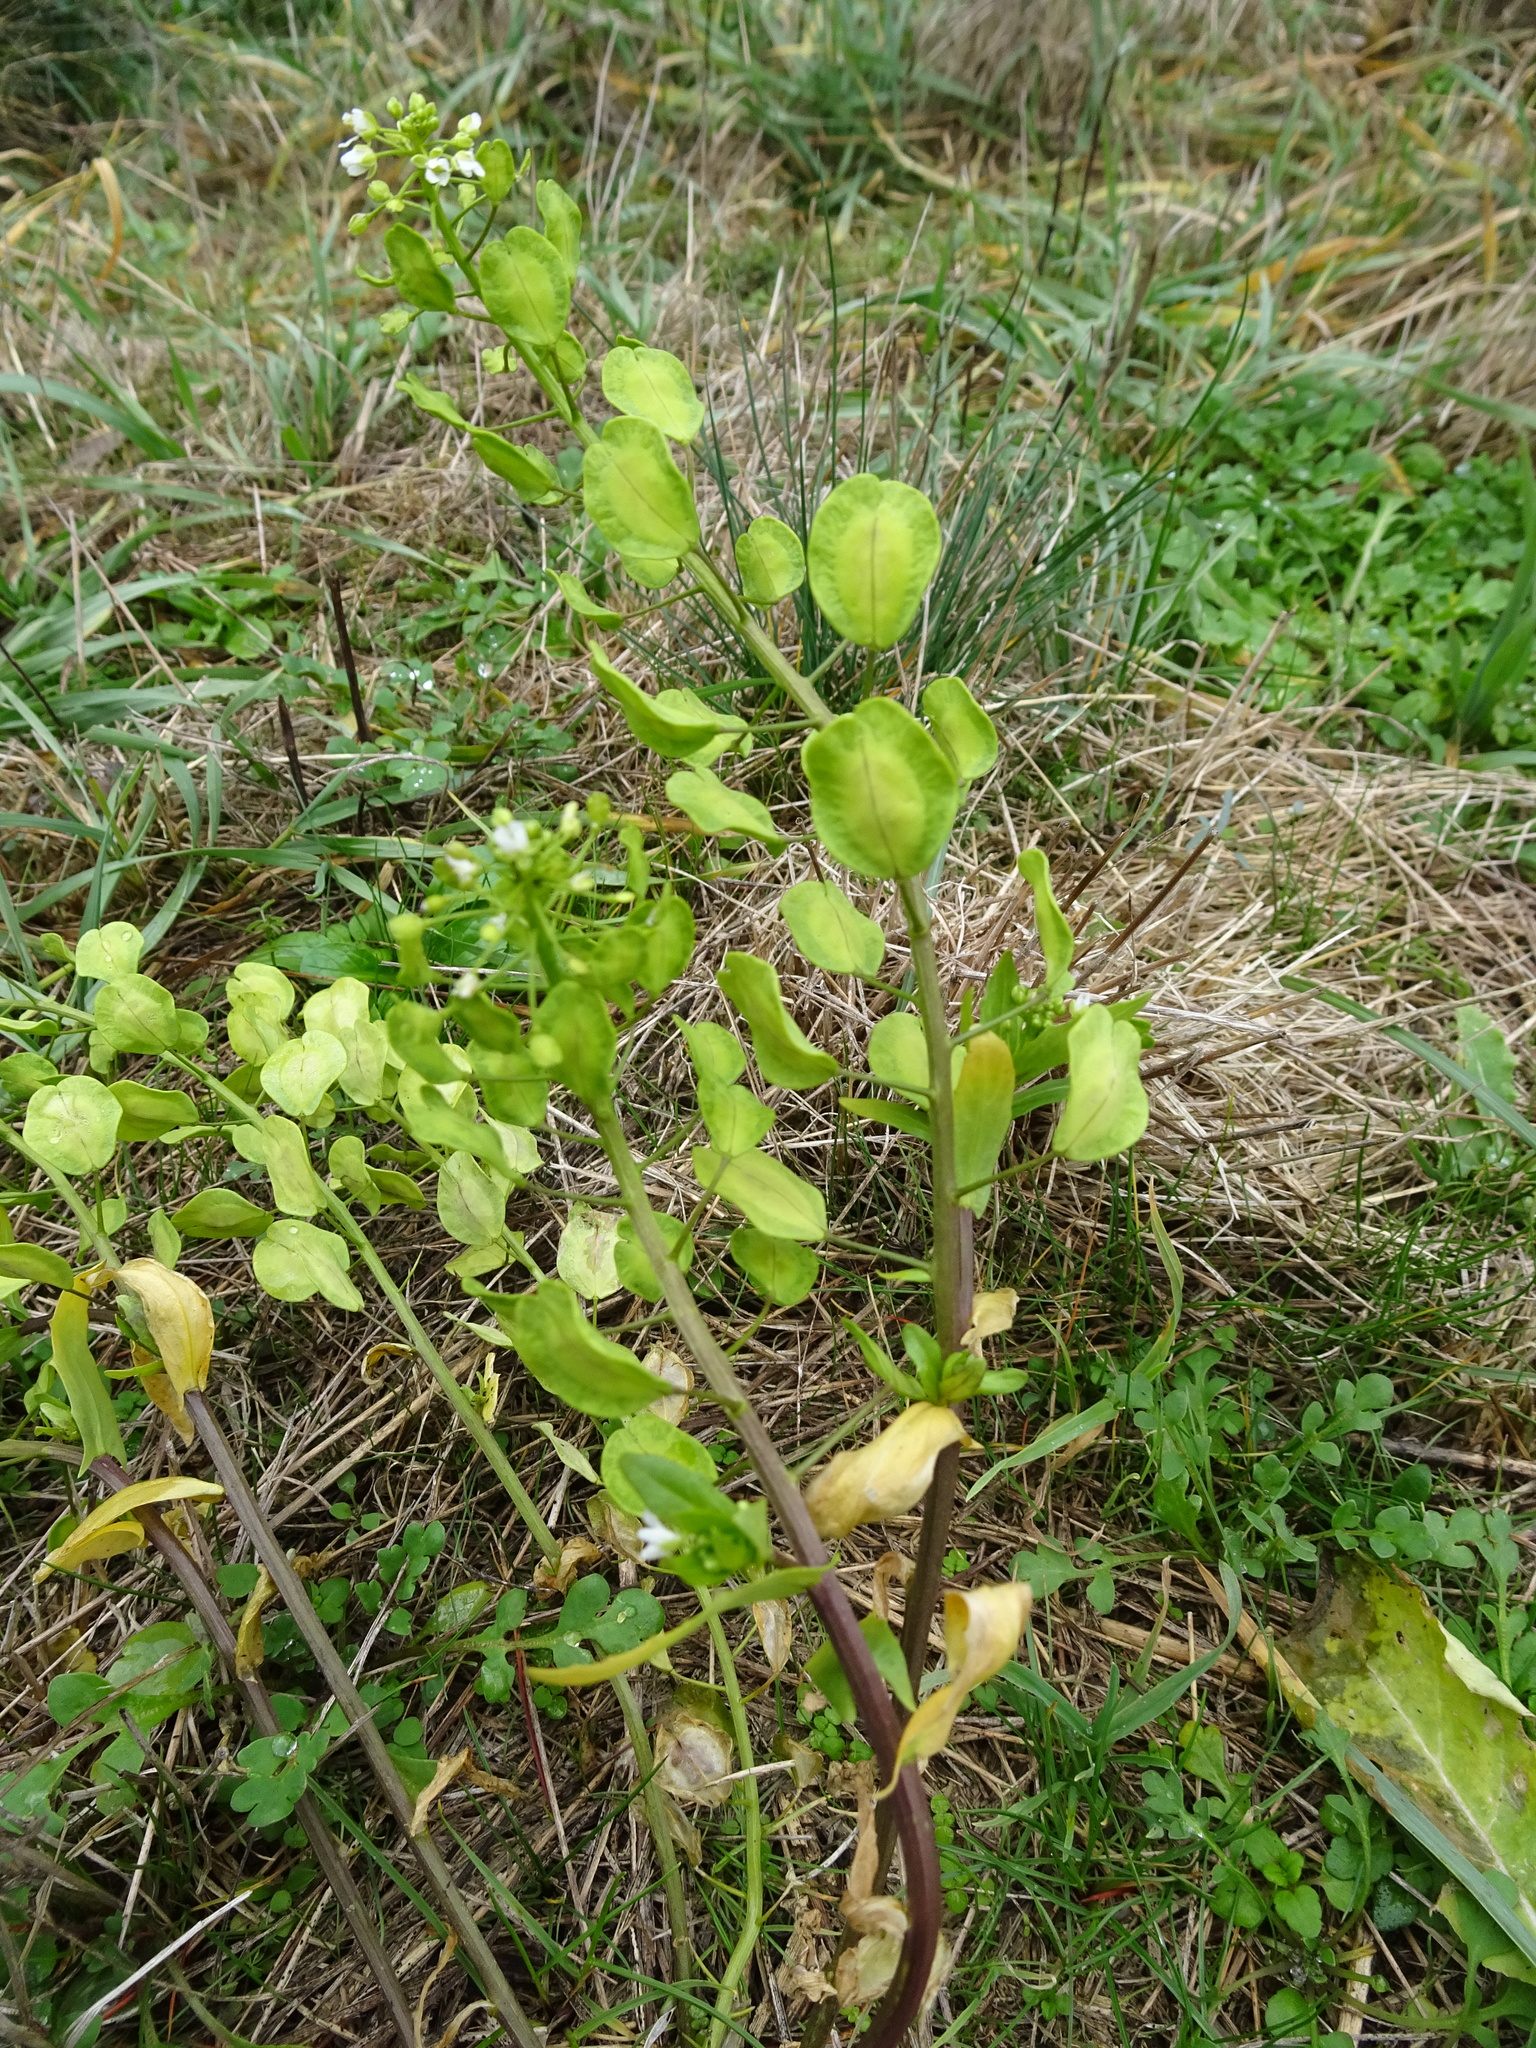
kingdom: Plantae
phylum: Tracheophyta
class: Magnoliopsida
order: Brassicales
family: Brassicaceae
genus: Thlaspi
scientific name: Thlaspi arvense
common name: Field pennycress
